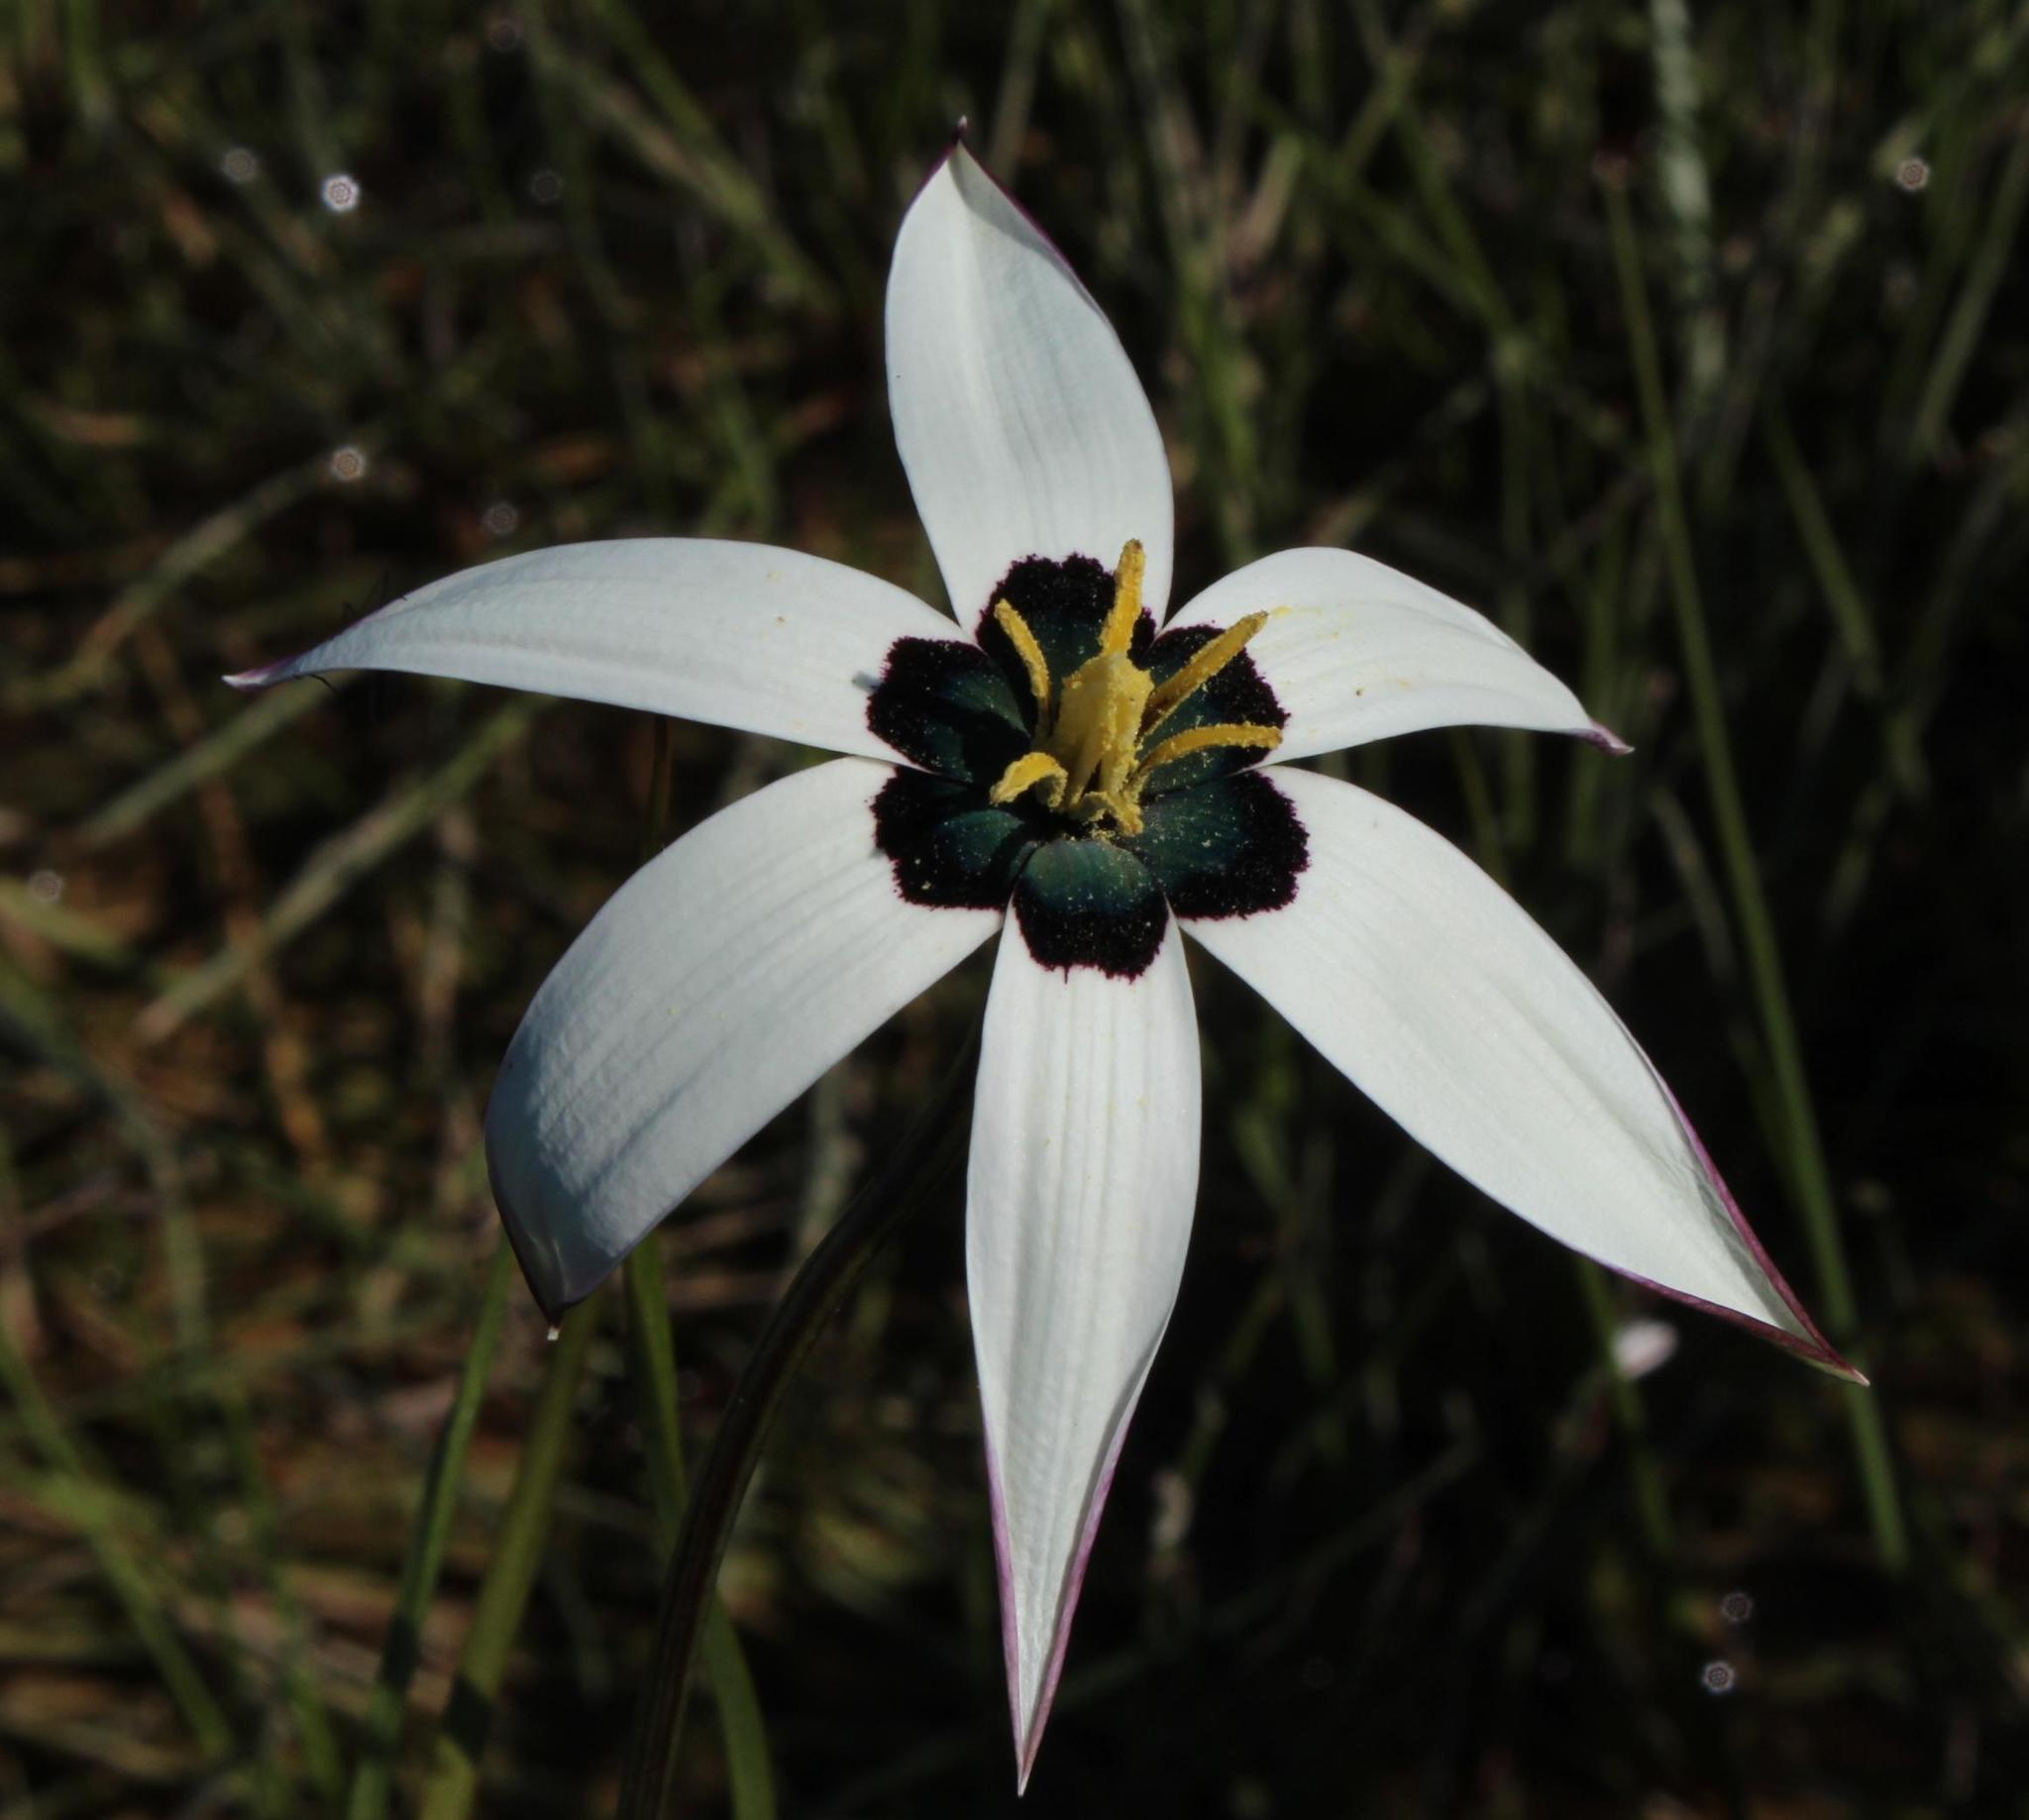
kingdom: Plantae
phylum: Tracheophyta
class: Liliopsida
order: Asparagales
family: Hypoxidaceae
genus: Pauridia
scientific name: Pauridia capensis
